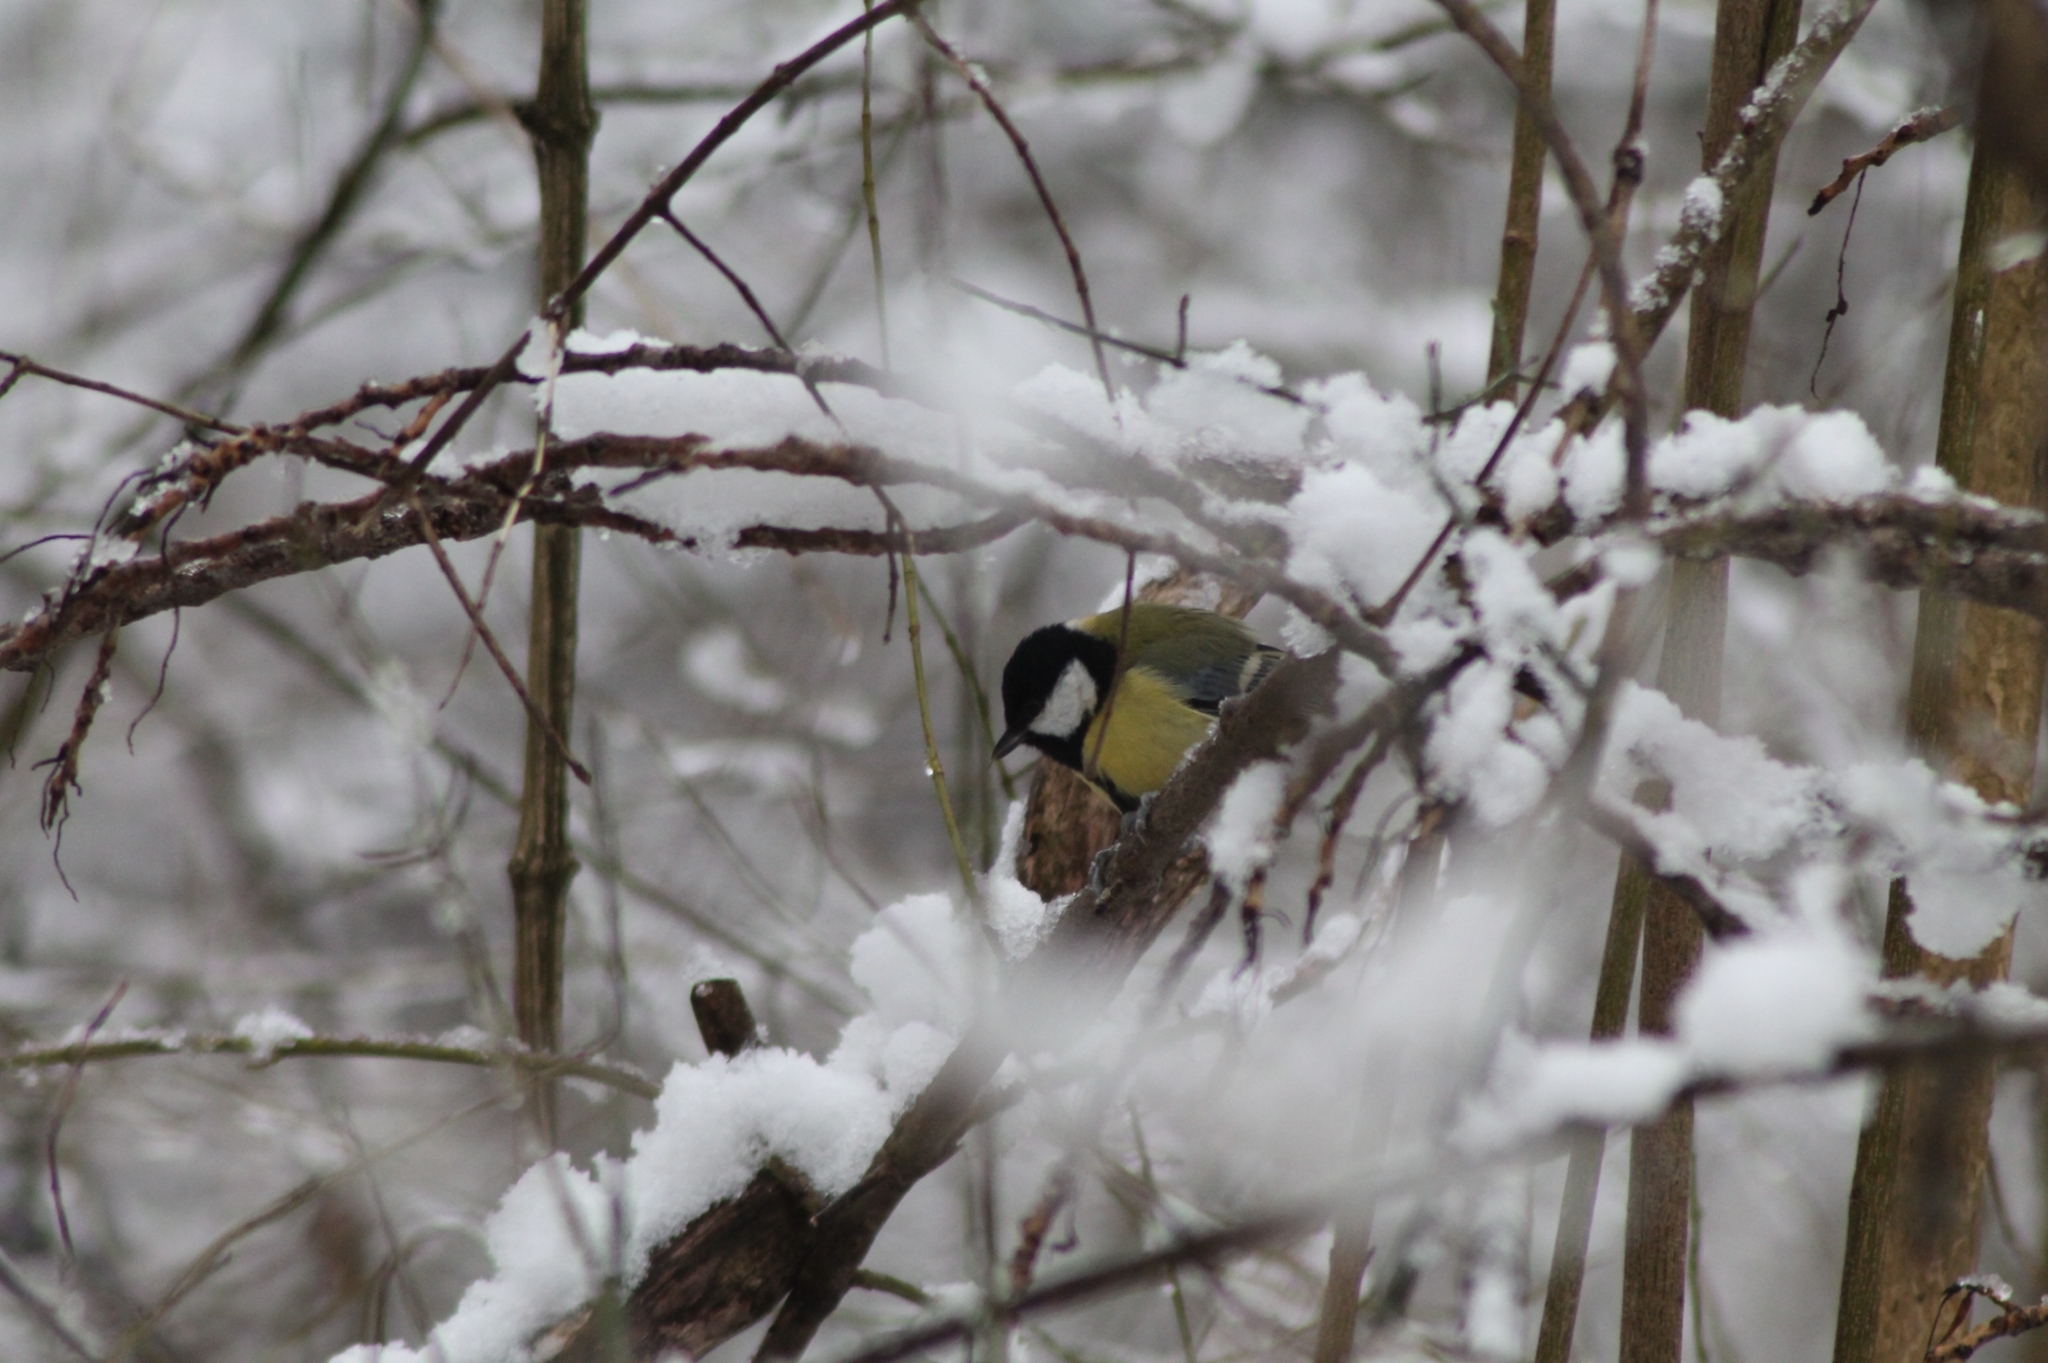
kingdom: Animalia
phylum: Chordata
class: Aves
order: Passeriformes
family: Paridae
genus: Parus
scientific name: Parus major
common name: Great tit
